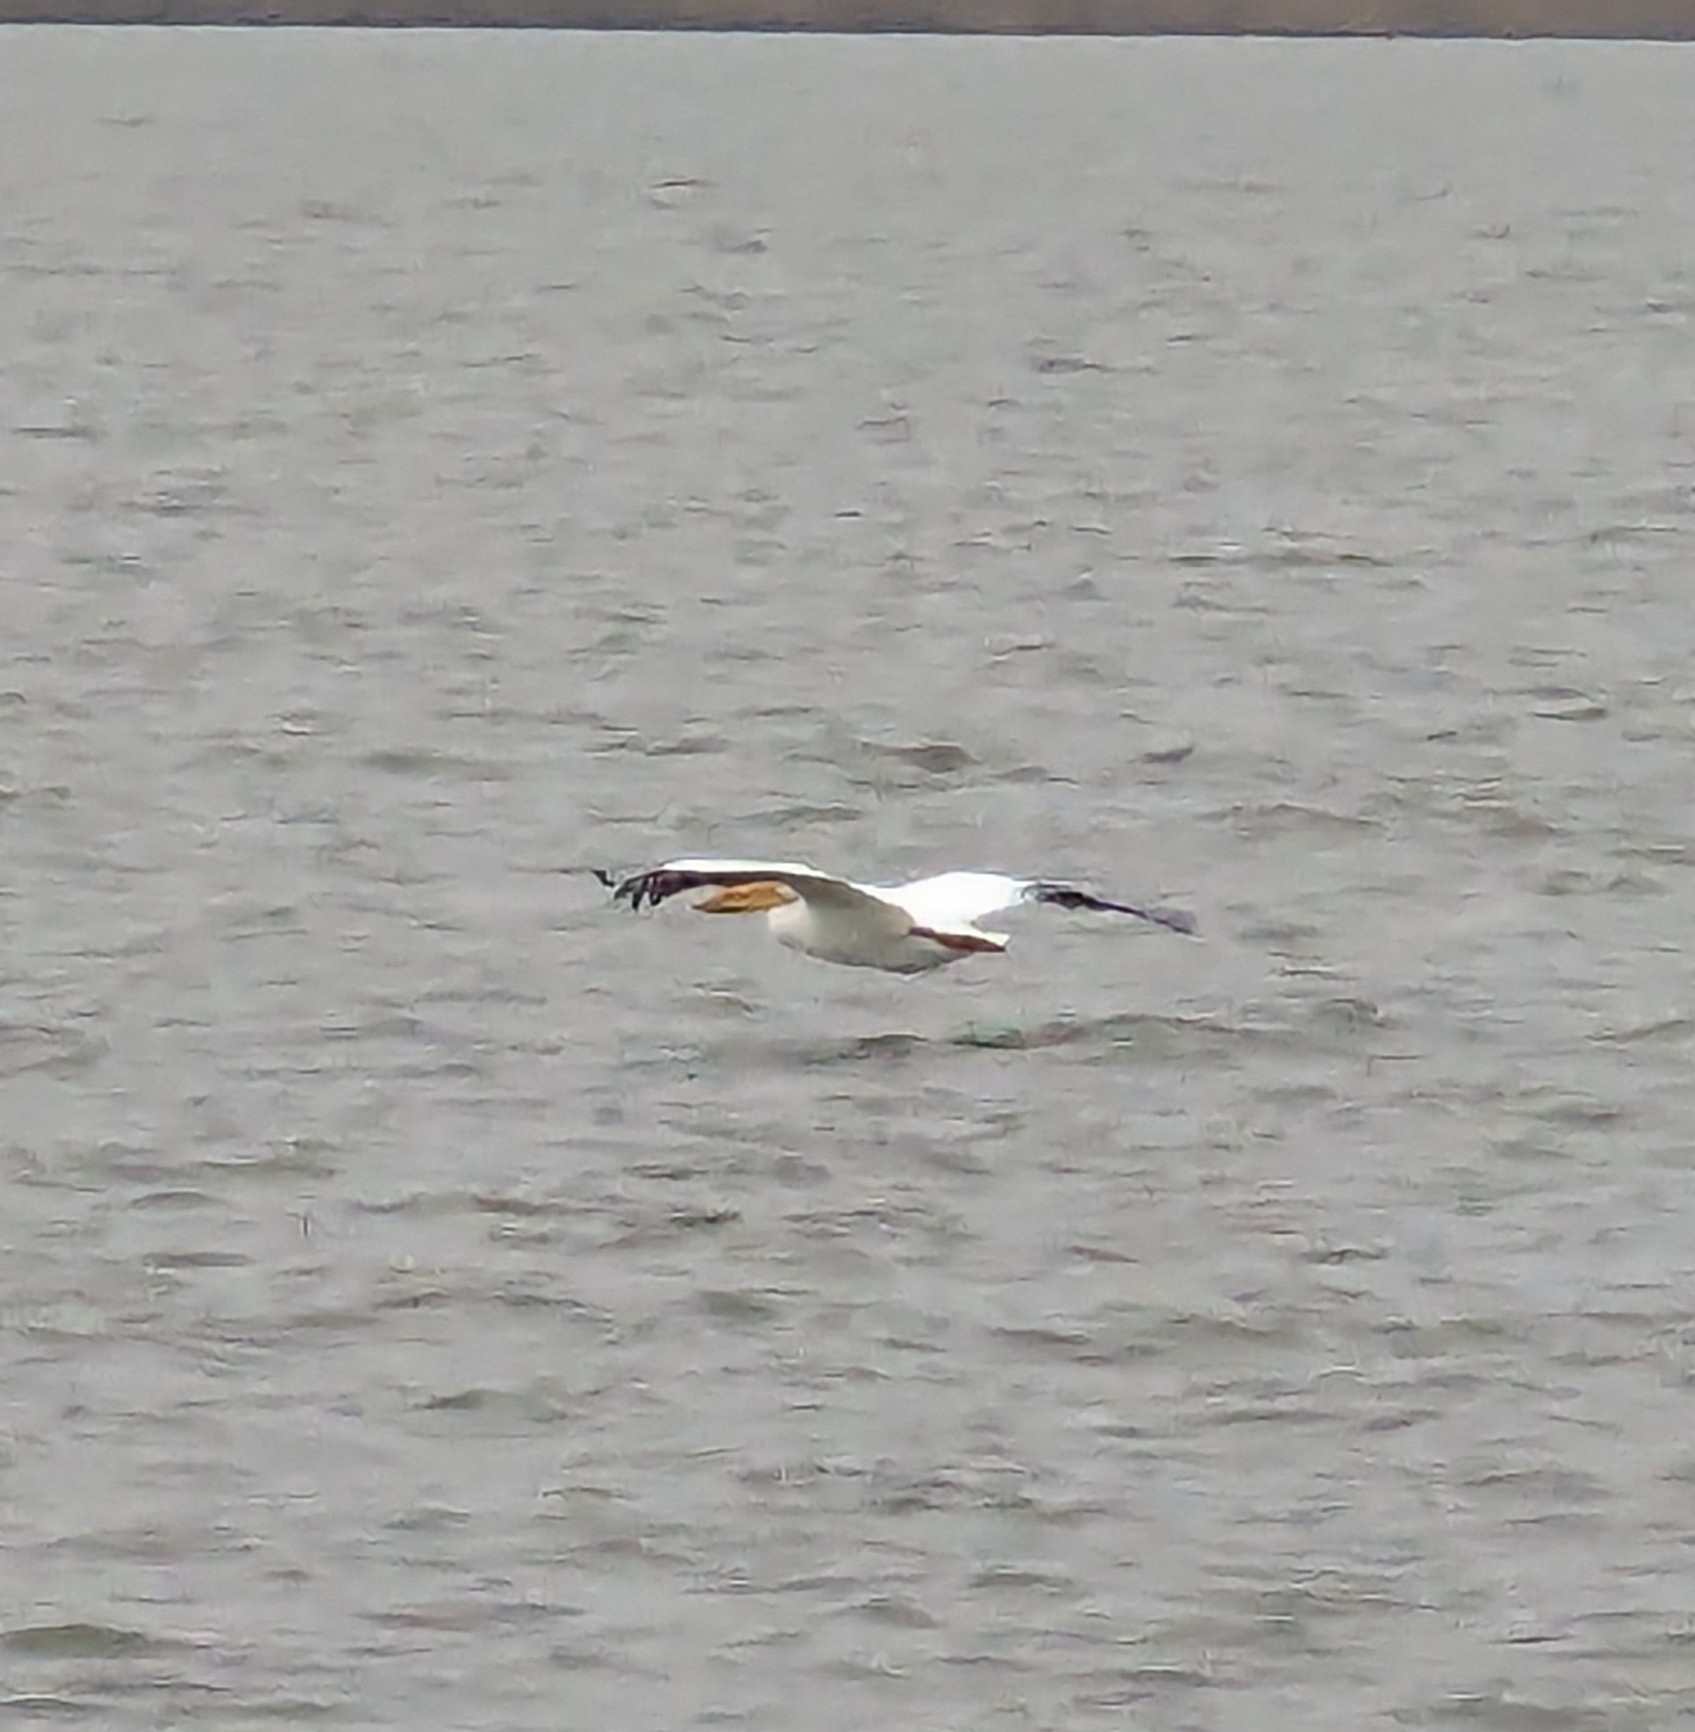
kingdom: Animalia
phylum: Chordata
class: Aves
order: Pelecaniformes
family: Pelecanidae
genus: Pelecanus
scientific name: Pelecanus erythrorhynchos
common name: American white pelican
